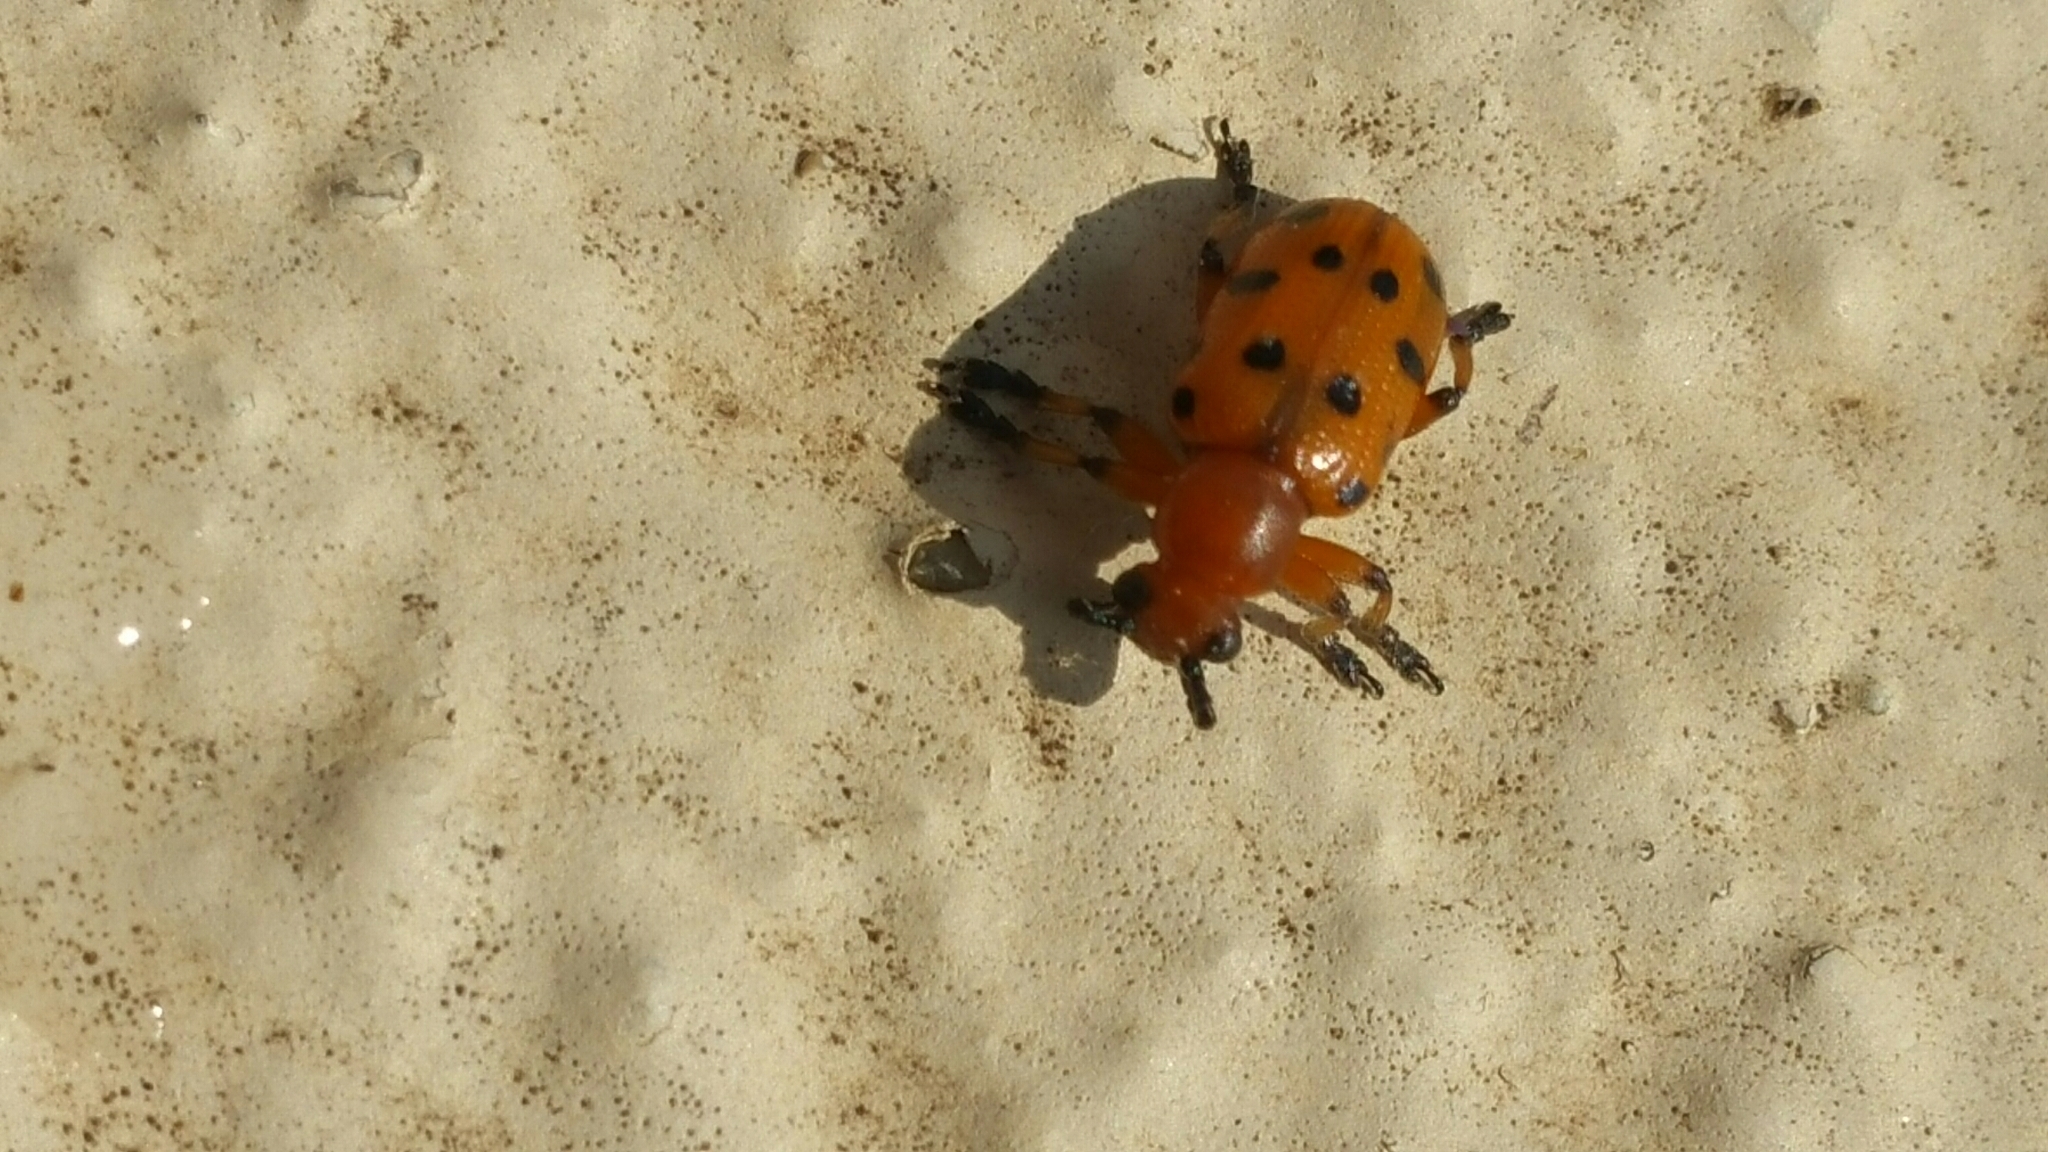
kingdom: Animalia
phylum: Arthropoda
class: Insecta
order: Coleoptera
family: Chrysomelidae
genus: Crioceris
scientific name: Crioceris duodecimpunctata
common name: Twelve-spotted asparagus beetle
